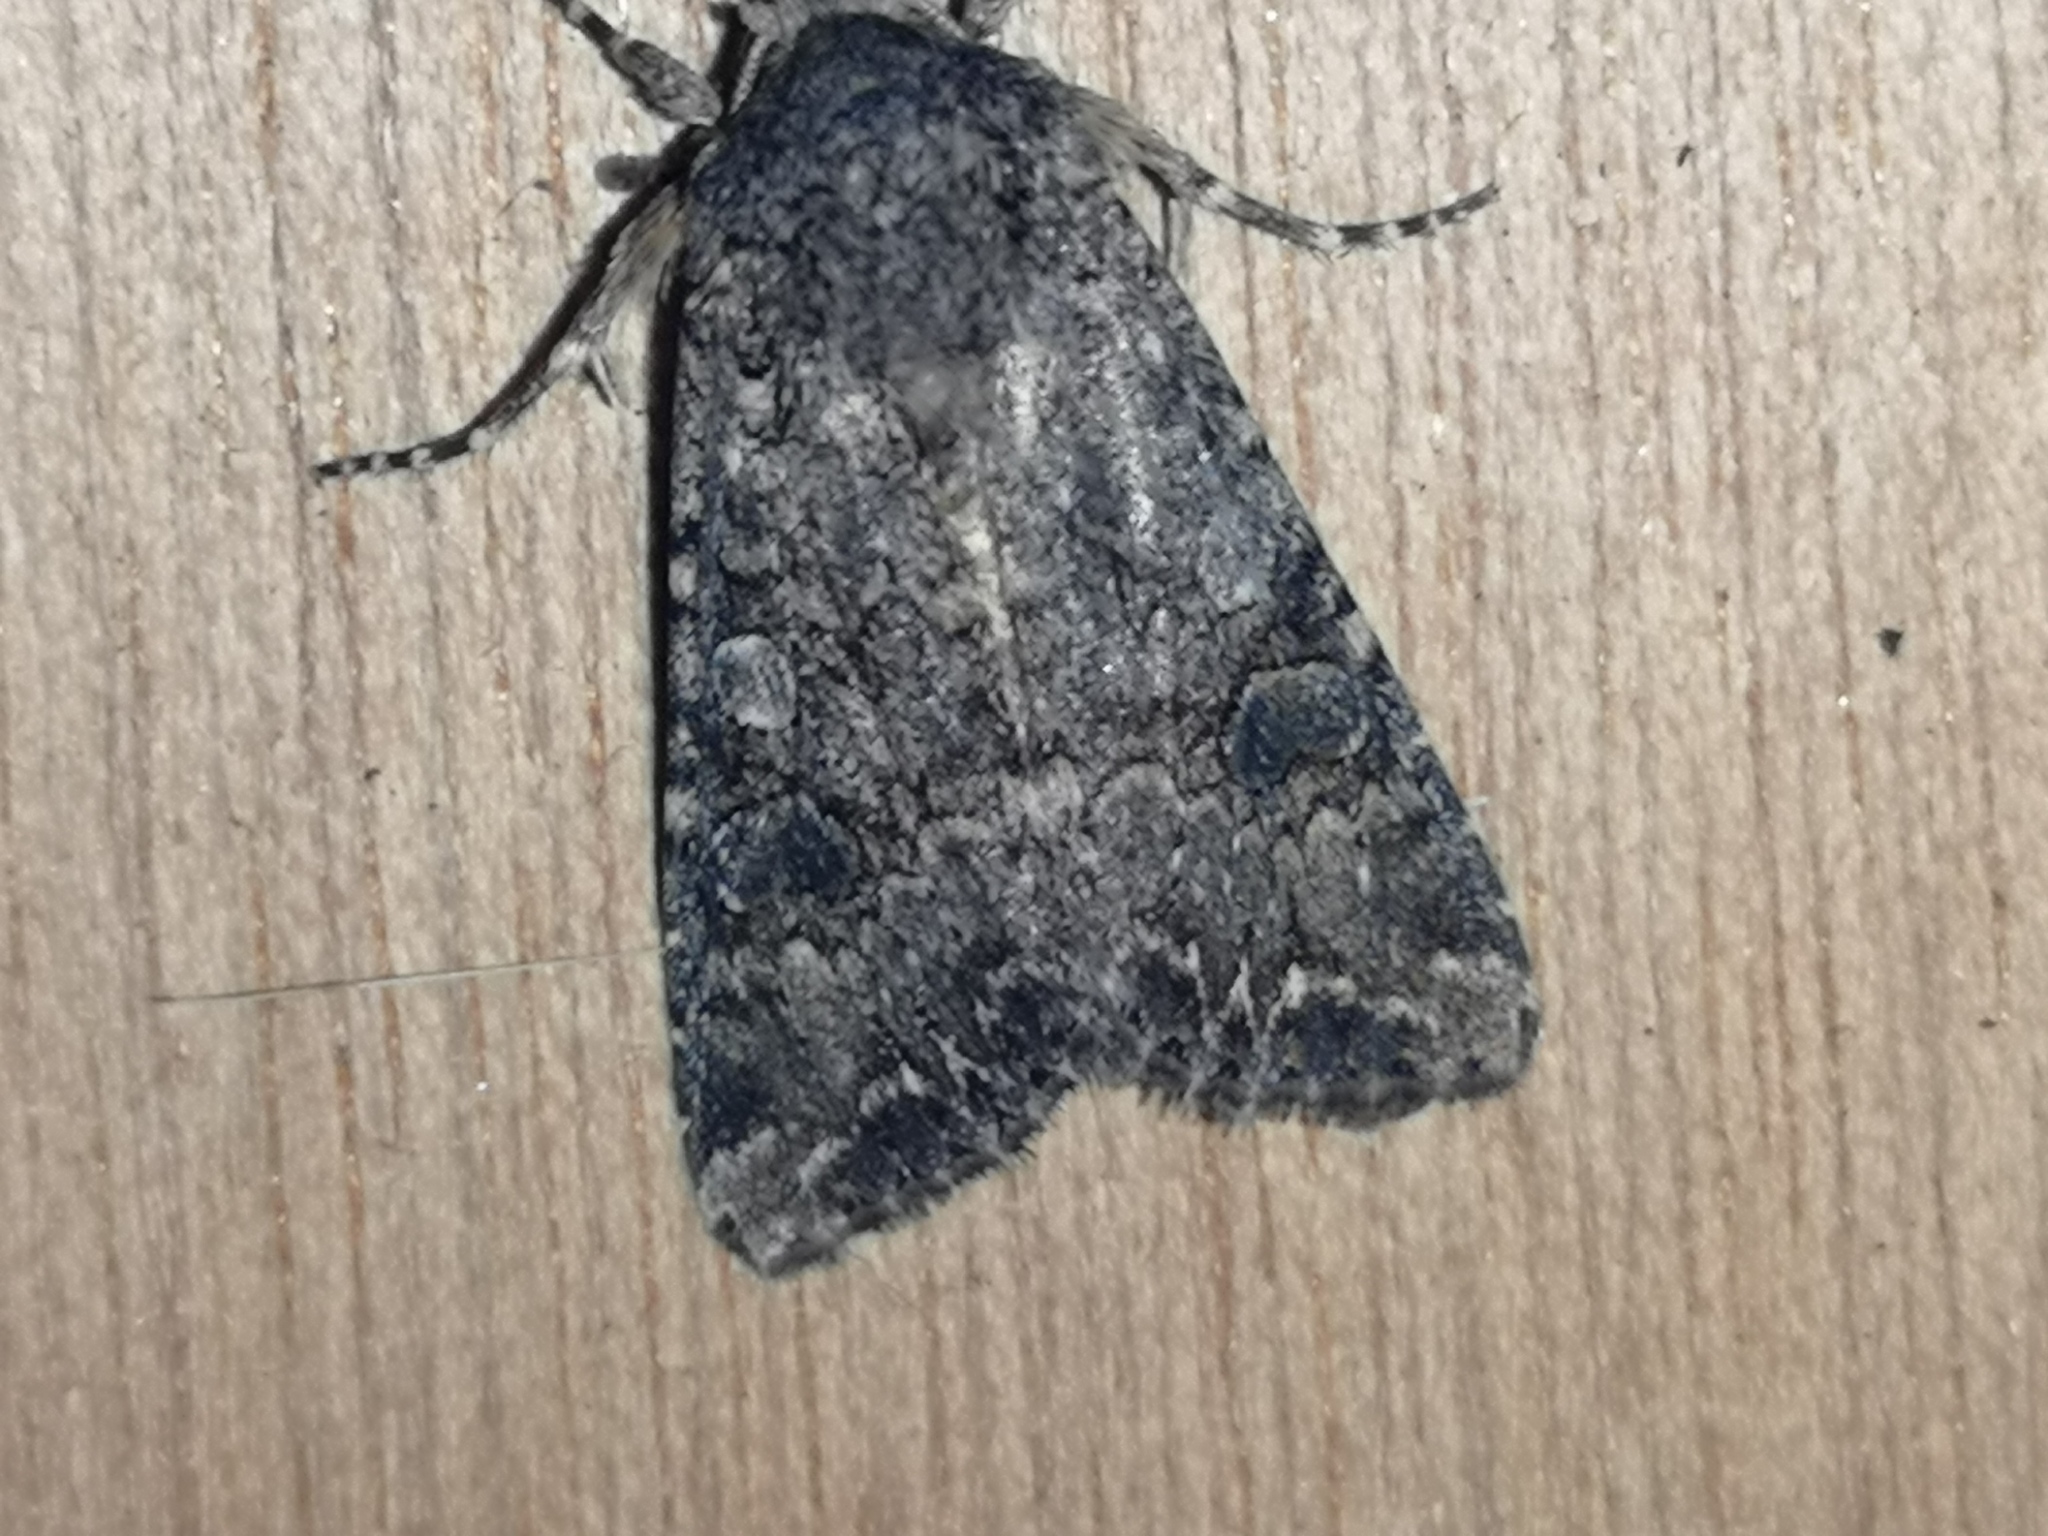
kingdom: Animalia
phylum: Arthropoda
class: Insecta
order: Lepidoptera
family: Noctuidae
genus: Anarta
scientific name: Anarta trifolii
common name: Clover cutworm moth
